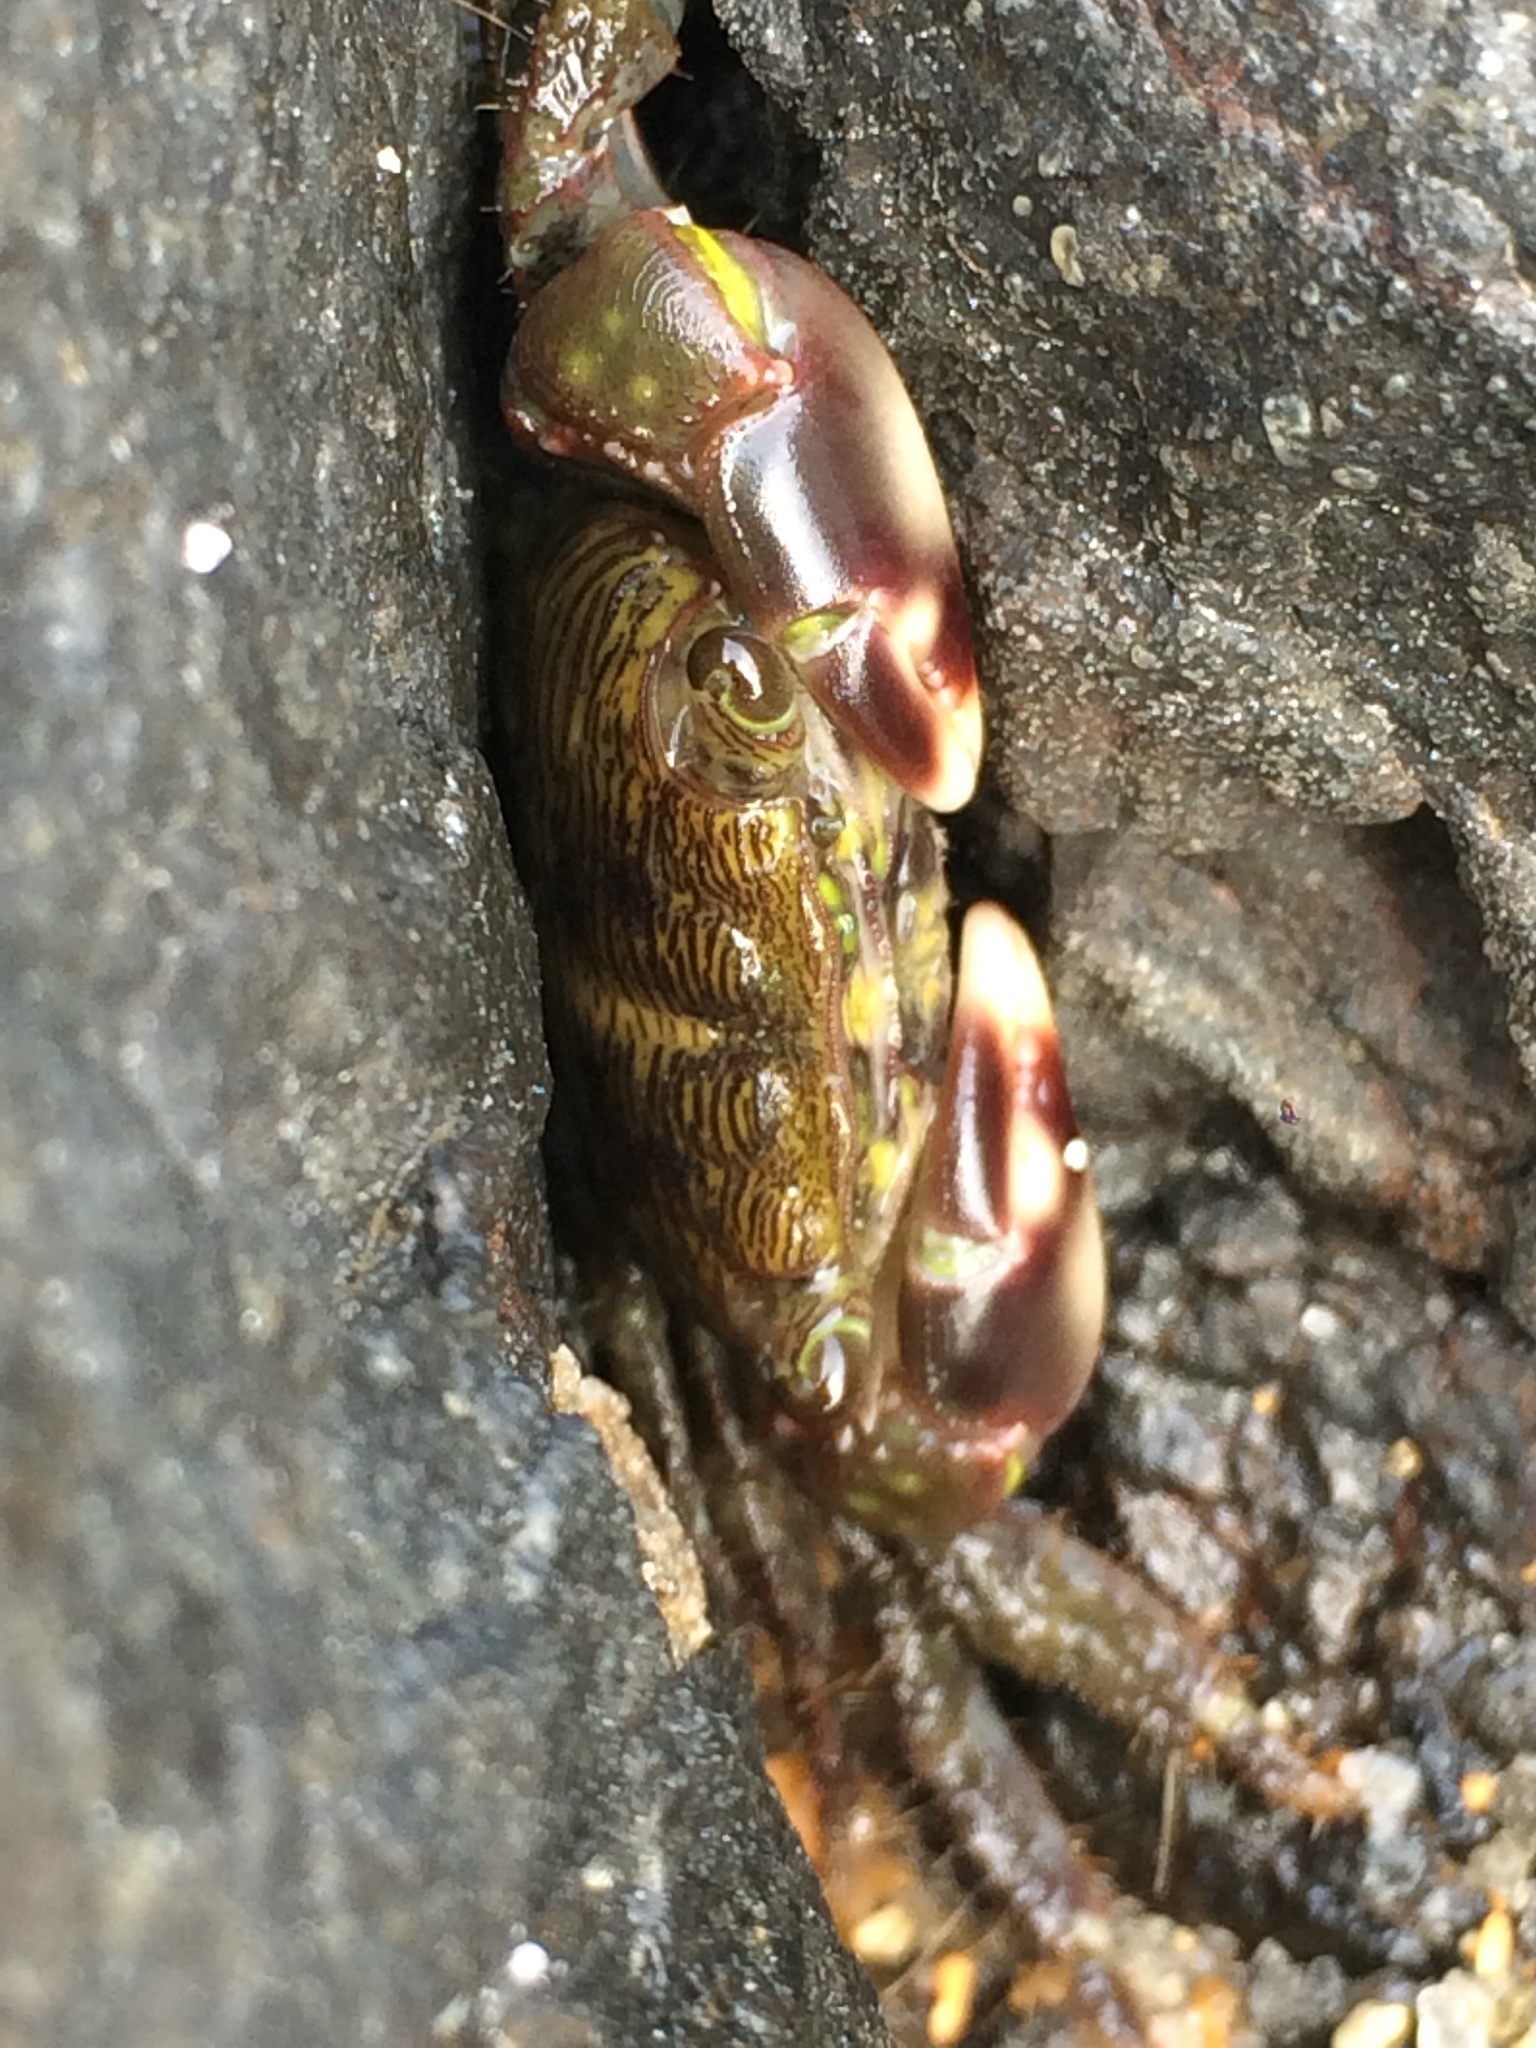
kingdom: Animalia
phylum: Arthropoda
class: Malacostraca
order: Decapoda
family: Grapsidae
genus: Pachygrapsus
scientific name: Pachygrapsus transversus
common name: Mottled shore crab
